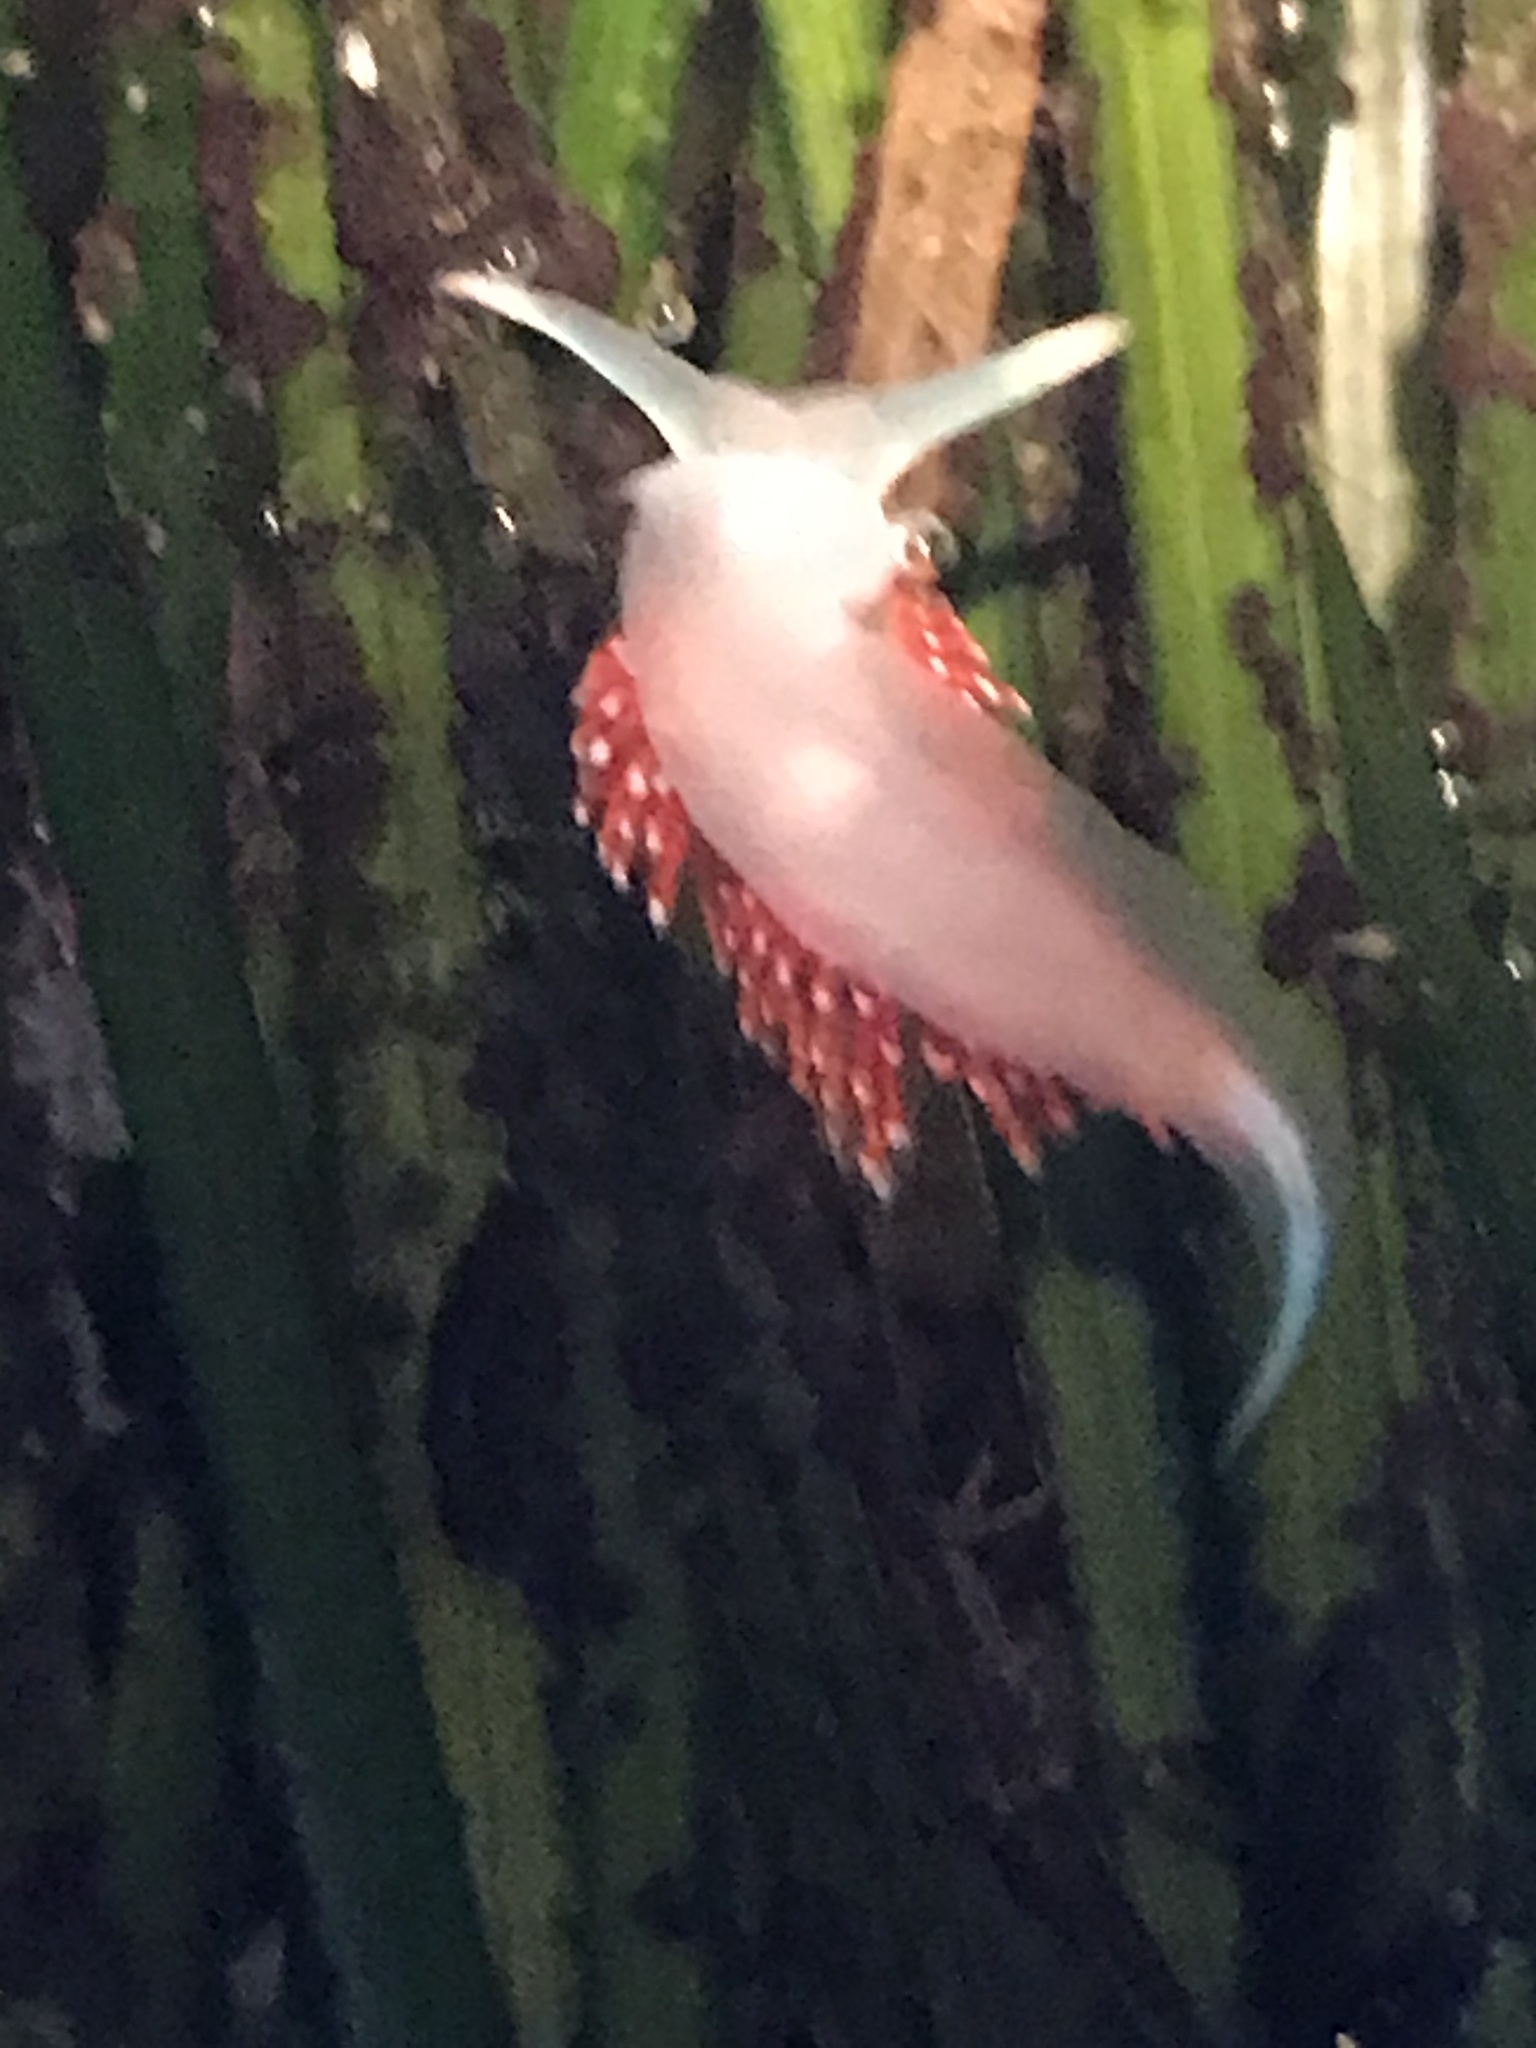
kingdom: Animalia
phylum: Mollusca
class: Gastropoda
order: Nudibranchia
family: Myrrhinidae
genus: Hermissenda
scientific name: Hermissenda opalescens
